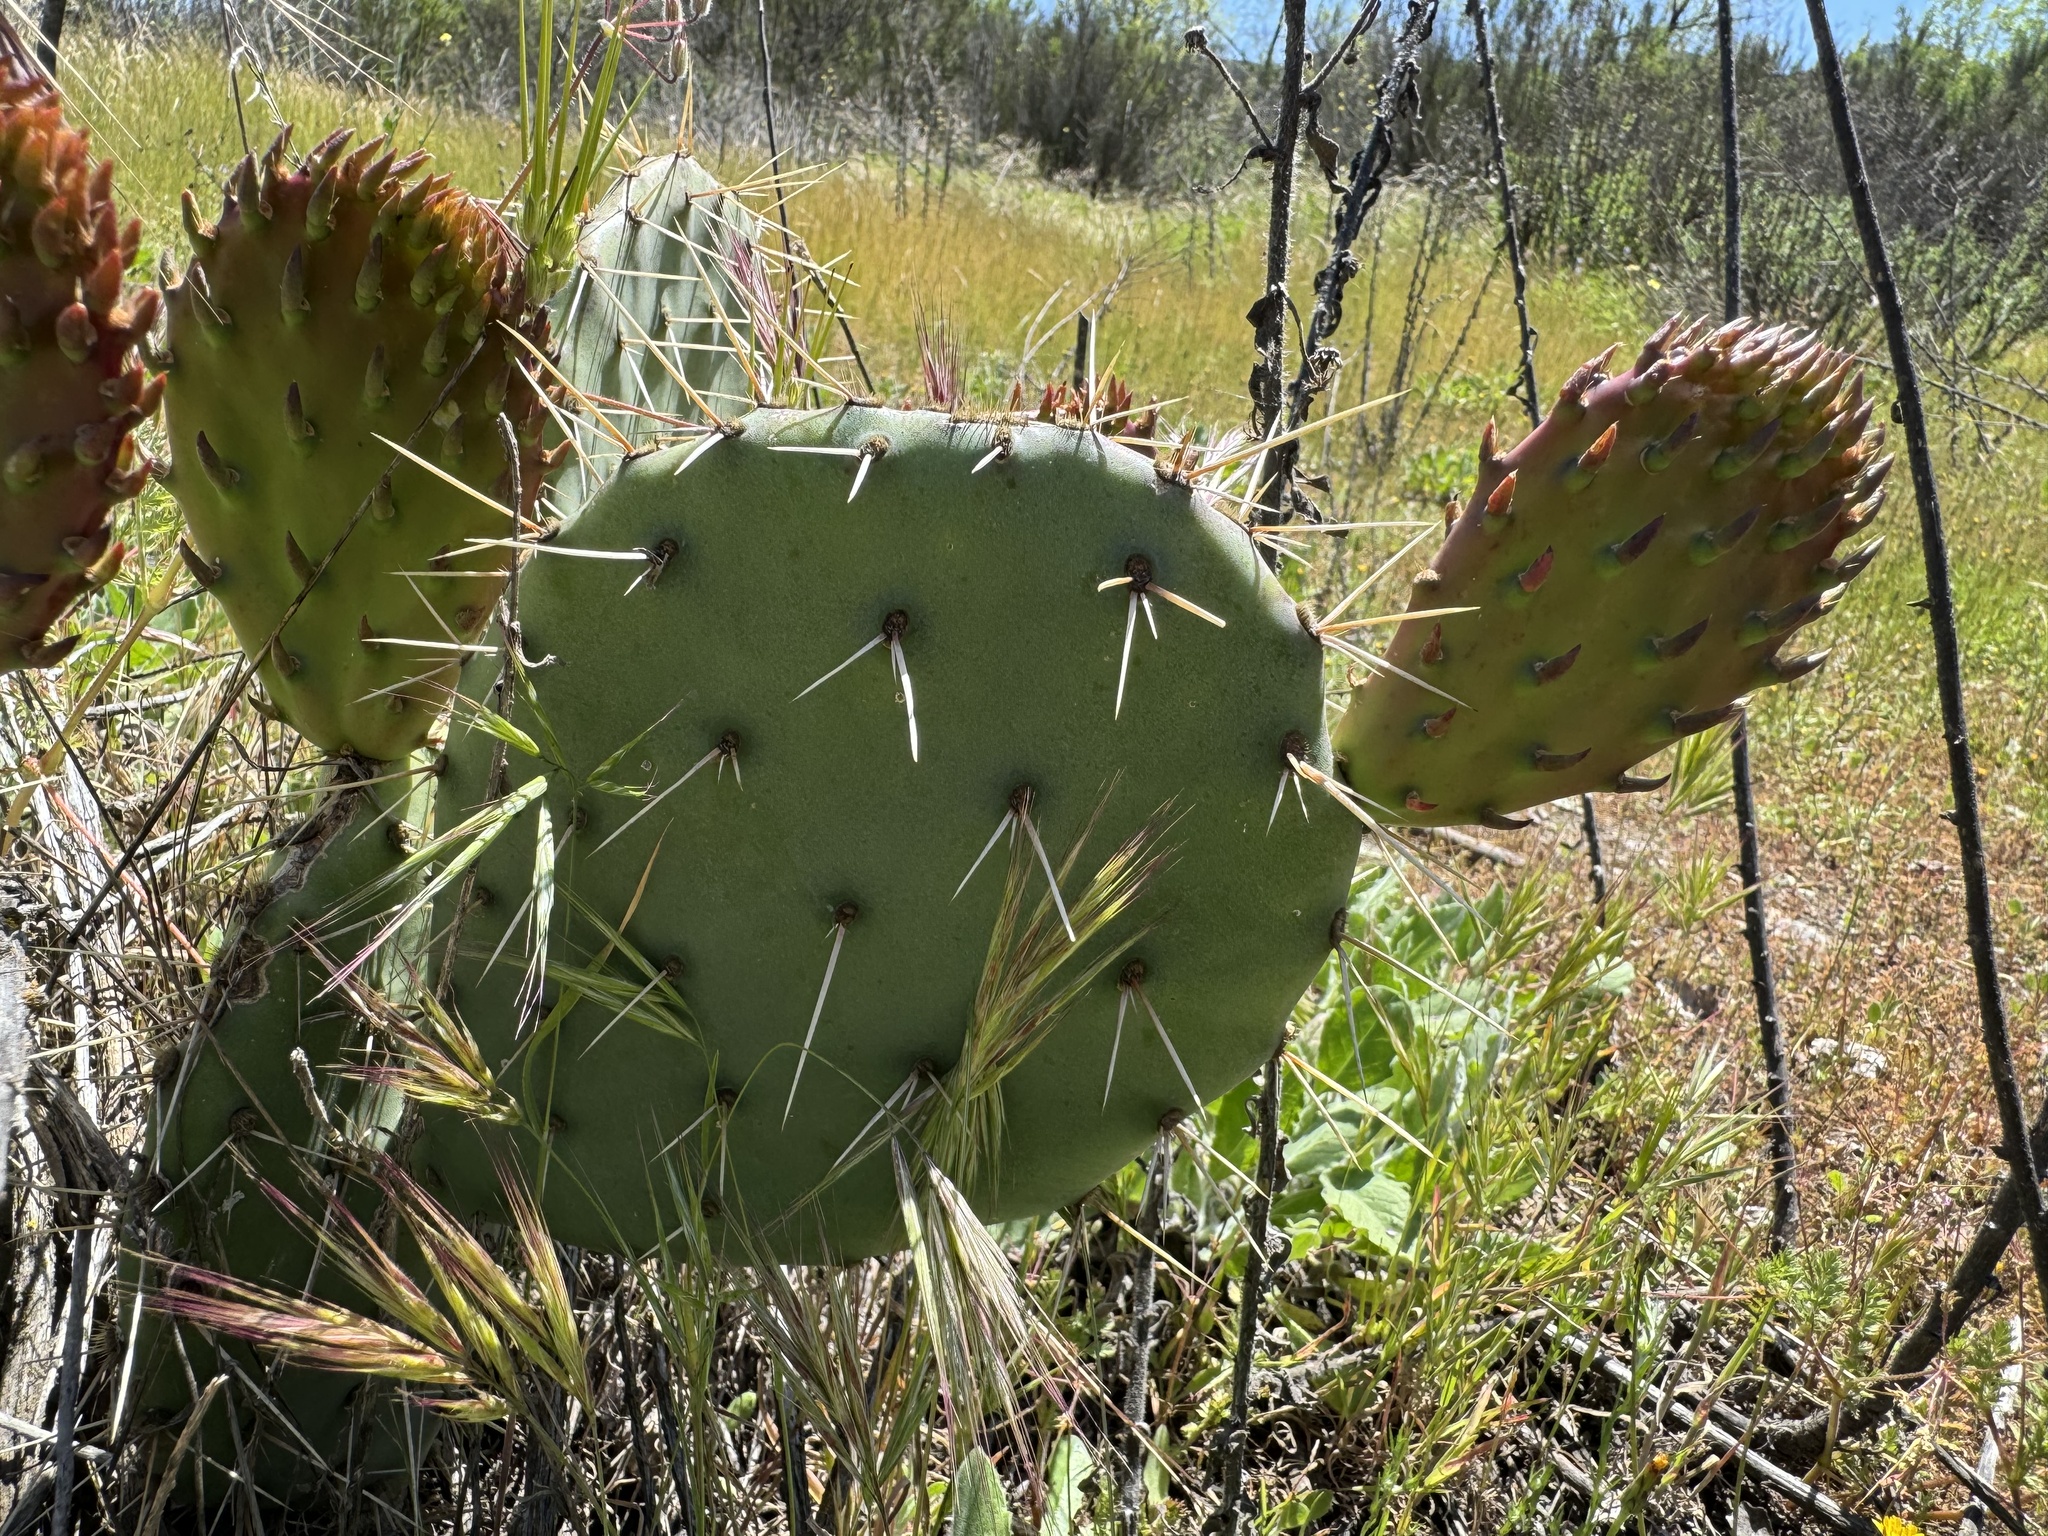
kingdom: Plantae
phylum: Tracheophyta
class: Magnoliopsida
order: Caryophyllales
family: Cactaceae
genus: Opuntia
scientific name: Opuntia phaeacantha
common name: New mexico prickly-pear
